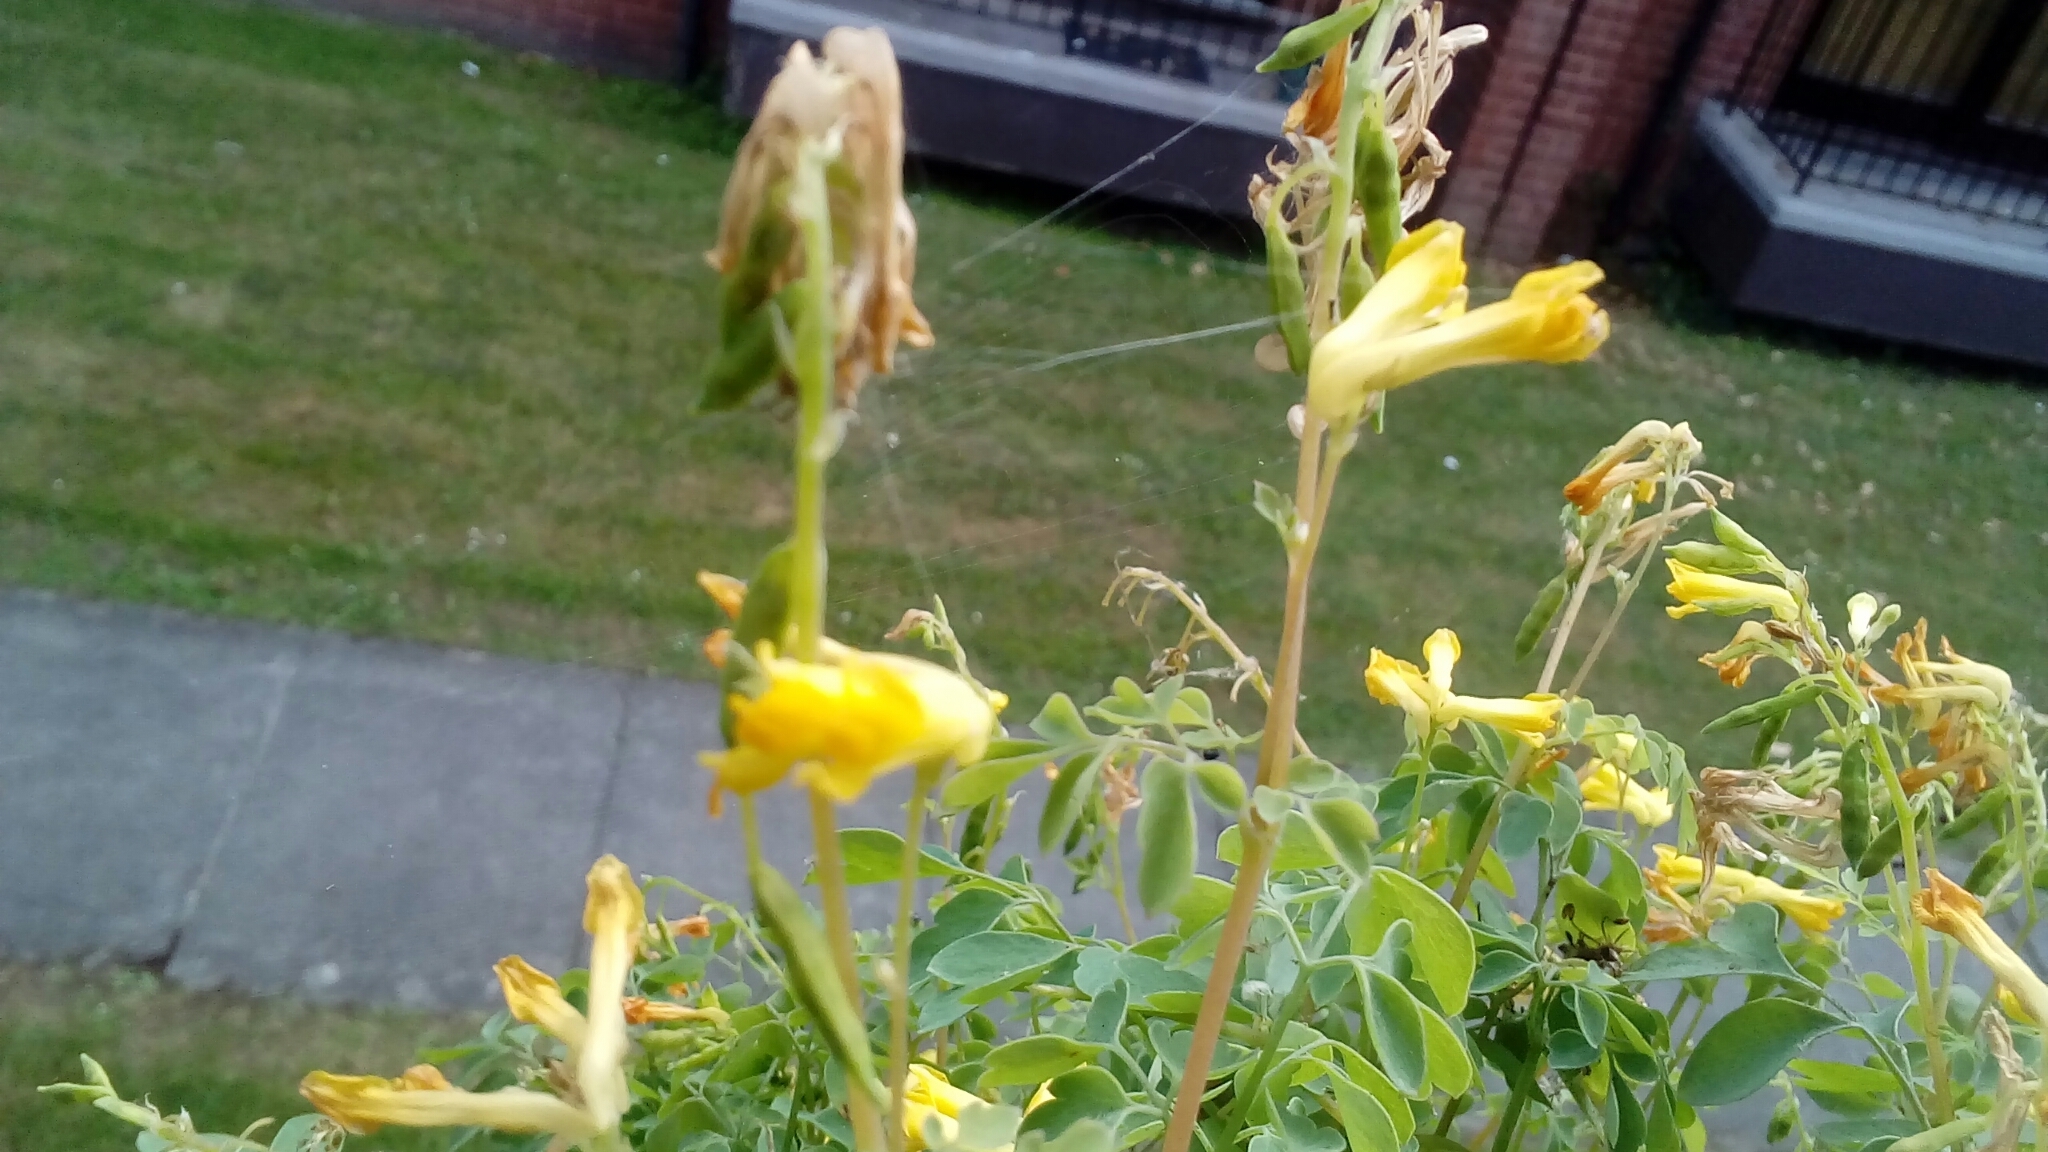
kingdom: Plantae
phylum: Tracheophyta
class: Magnoliopsida
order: Ranunculales
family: Papaveraceae
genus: Pseudofumaria
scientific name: Pseudofumaria lutea
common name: Yellow corydalis
